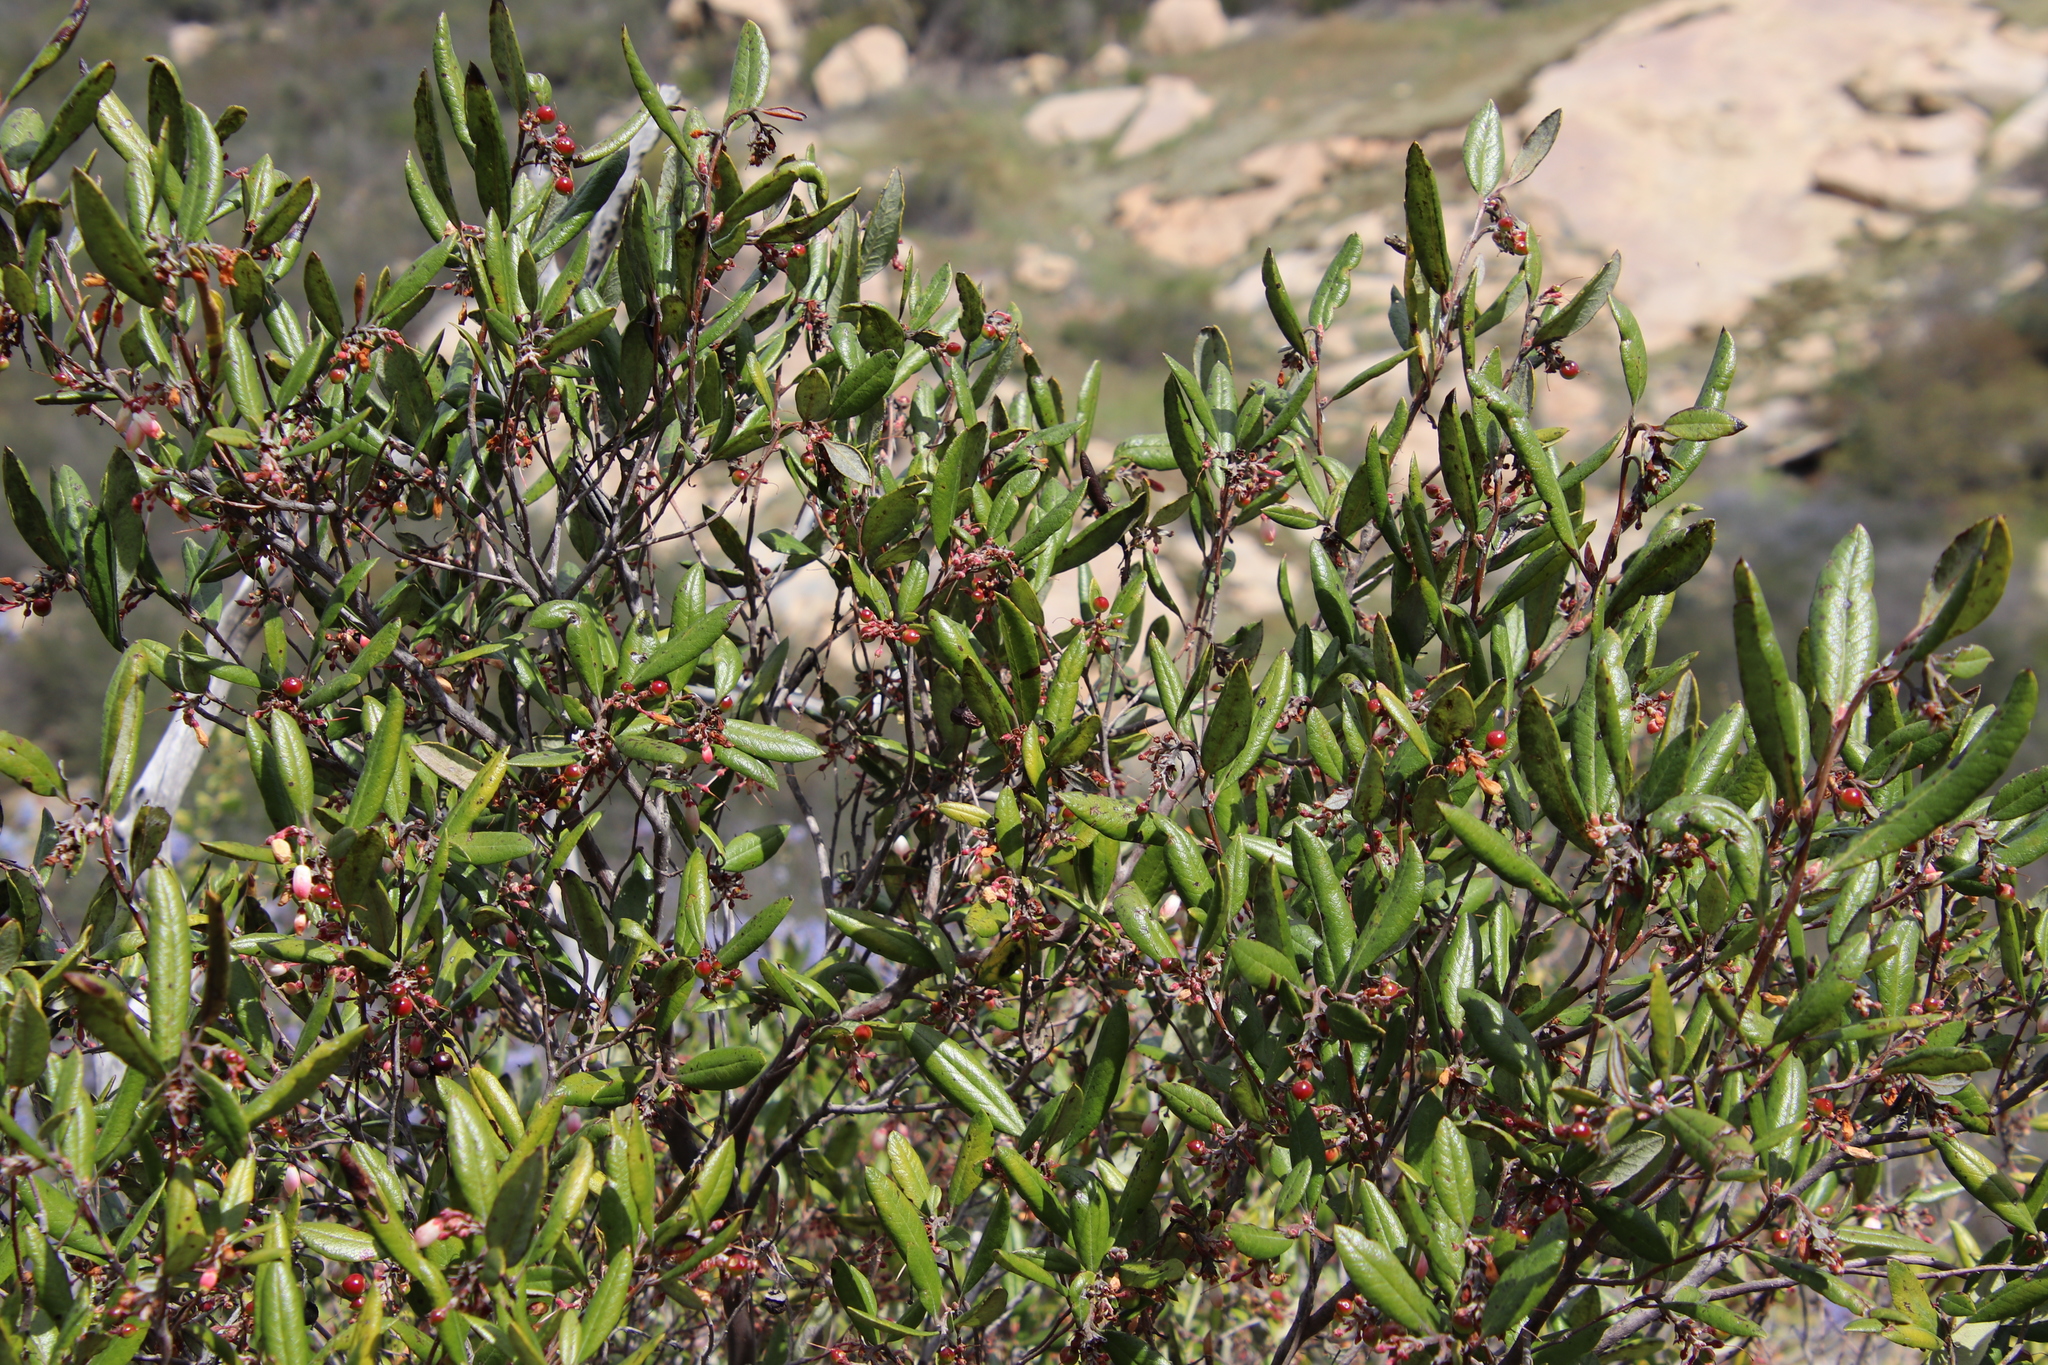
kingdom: Plantae
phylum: Tracheophyta
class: Magnoliopsida
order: Ericales
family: Ericaceae
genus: Arctostaphylos
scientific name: Arctostaphylos bicolor
